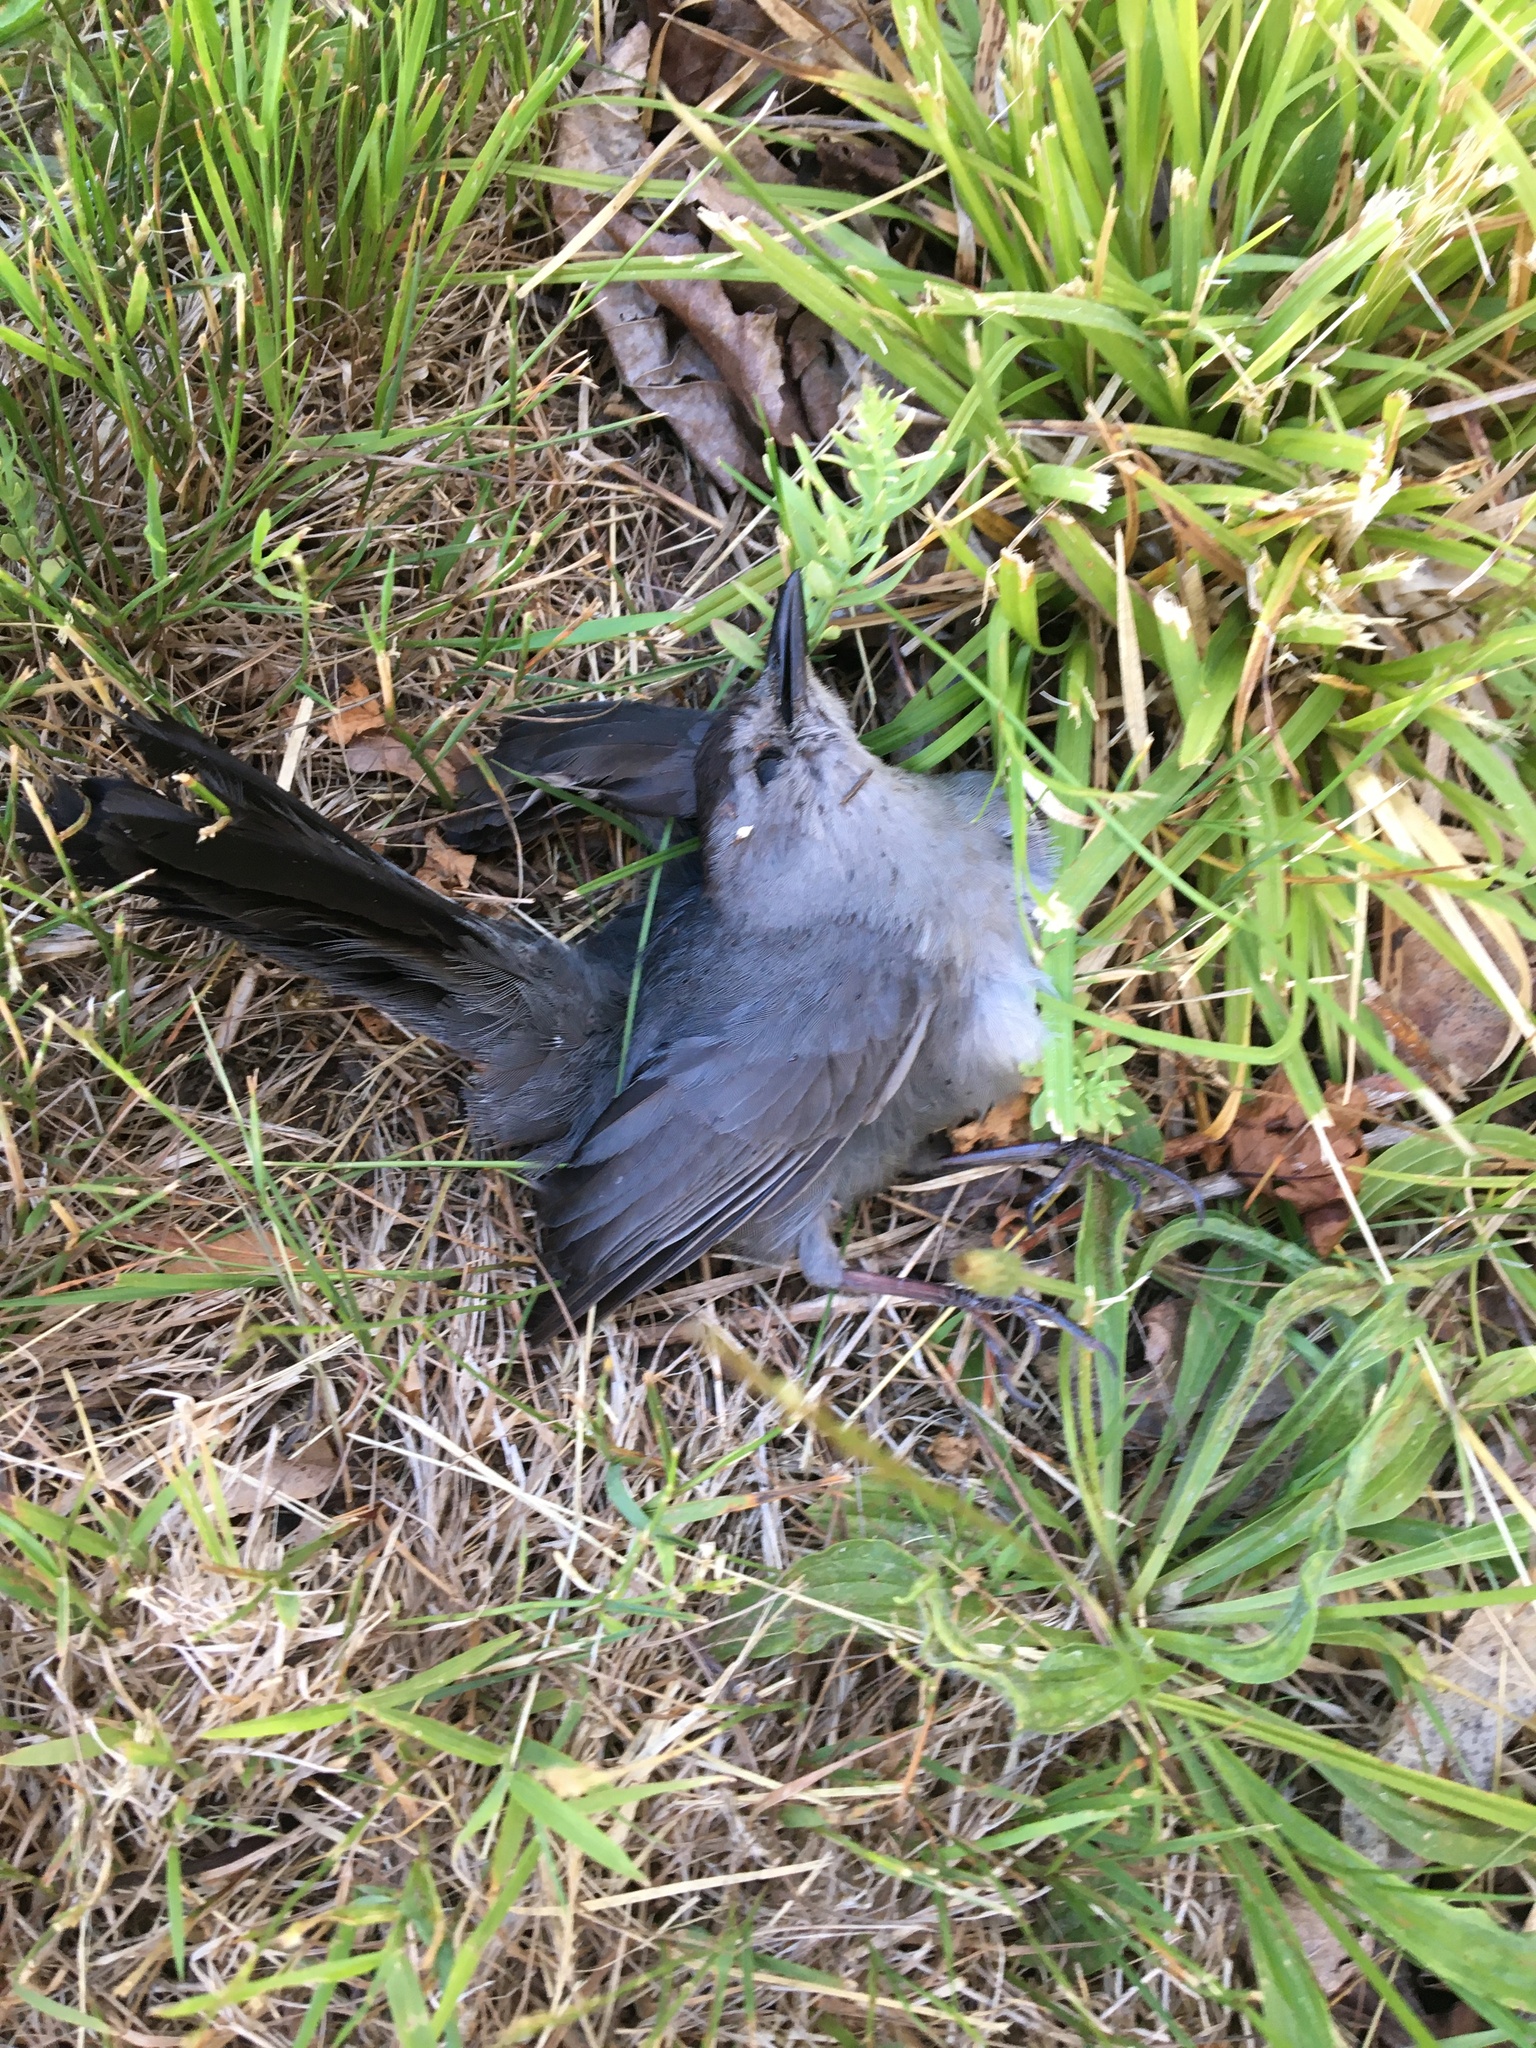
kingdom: Animalia
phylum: Chordata
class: Aves
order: Passeriformes
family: Mimidae
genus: Dumetella
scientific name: Dumetella carolinensis
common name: Gray catbird
